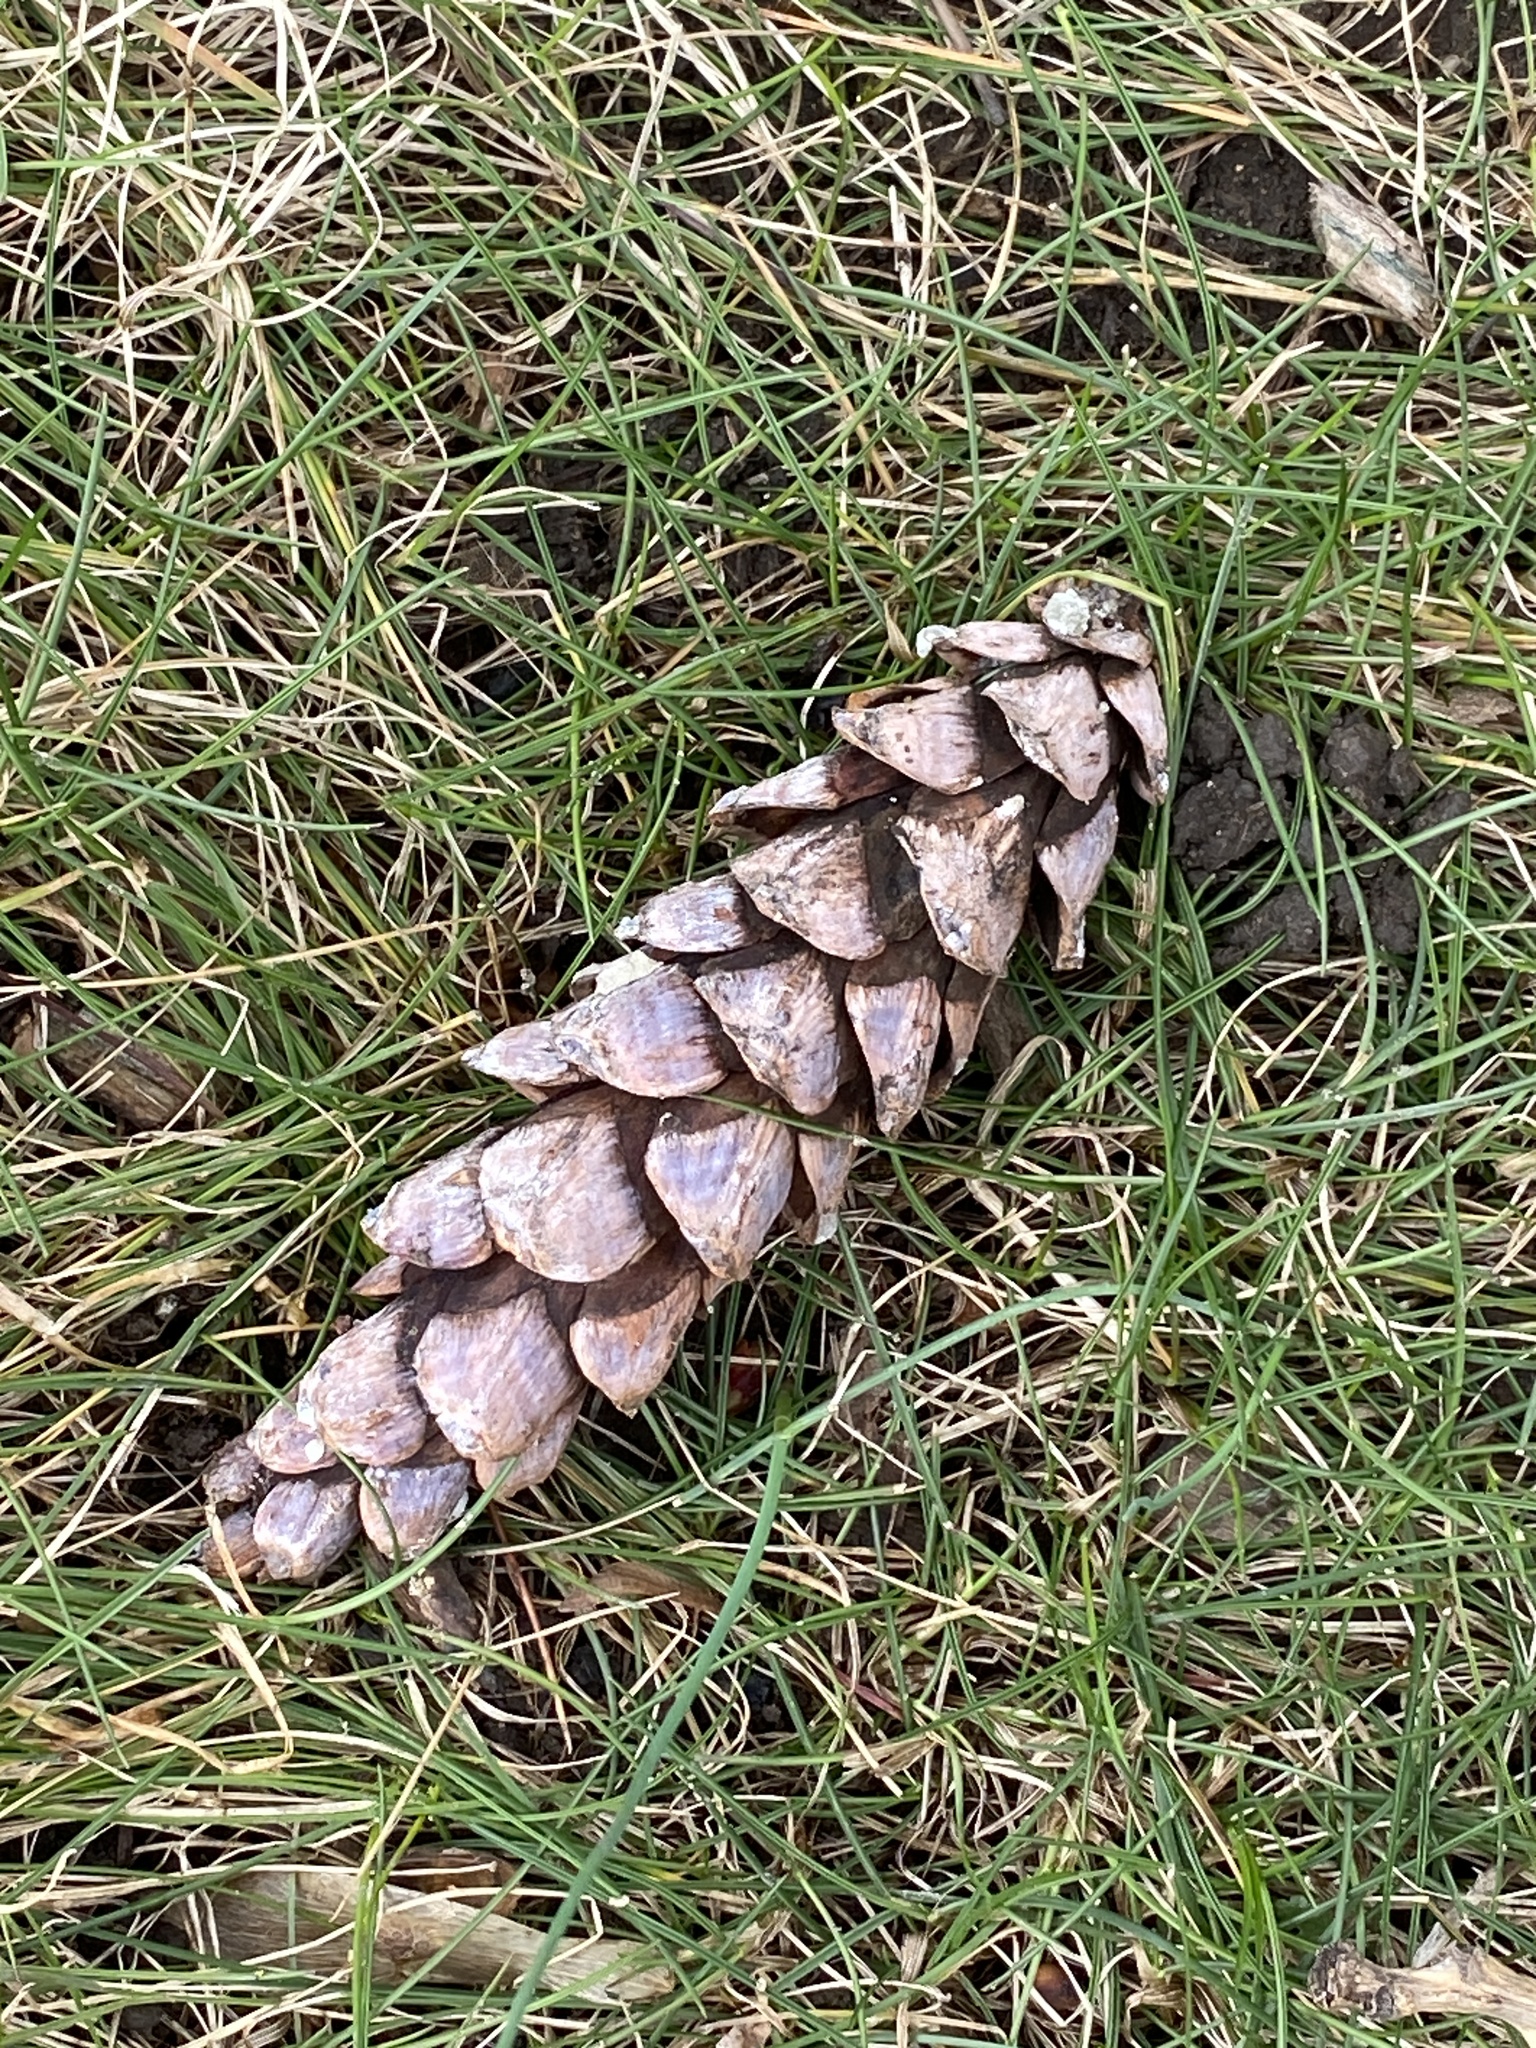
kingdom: Plantae
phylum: Tracheophyta
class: Pinopsida
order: Pinales
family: Pinaceae
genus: Pinus
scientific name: Pinus strobus
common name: Weymouth pine
